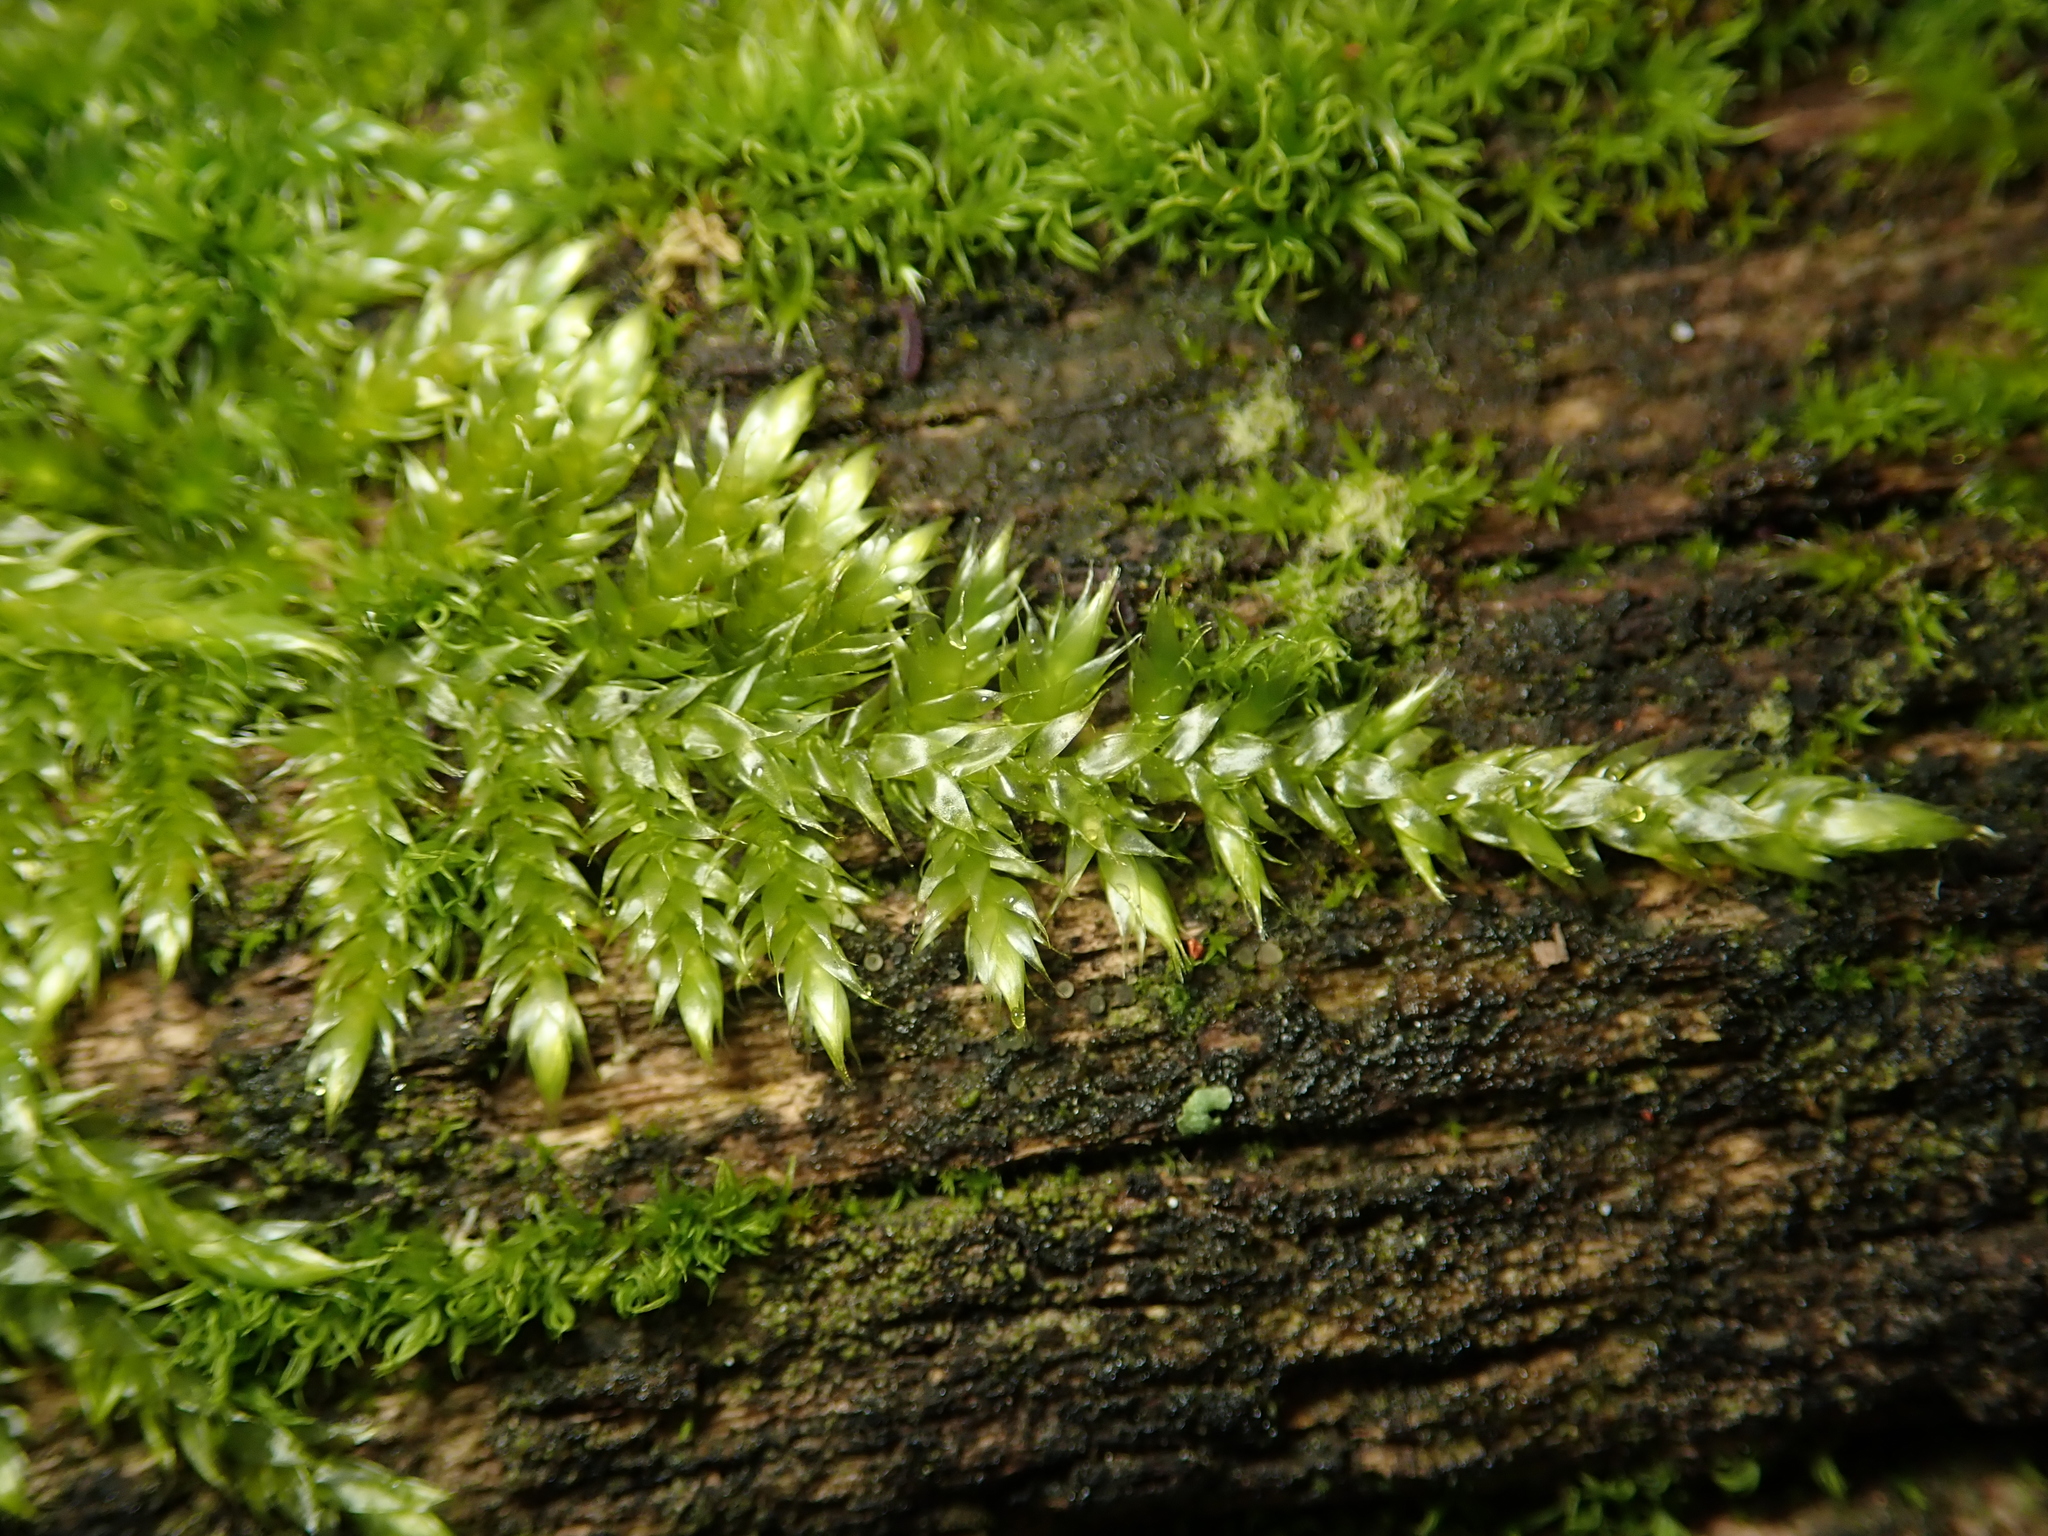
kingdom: Plantae
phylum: Bryophyta
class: Bryopsida
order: Hypnales
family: Hypnaceae
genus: Hypnum
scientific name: Hypnum cupressiforme
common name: Cypress-leaved plait-moss
